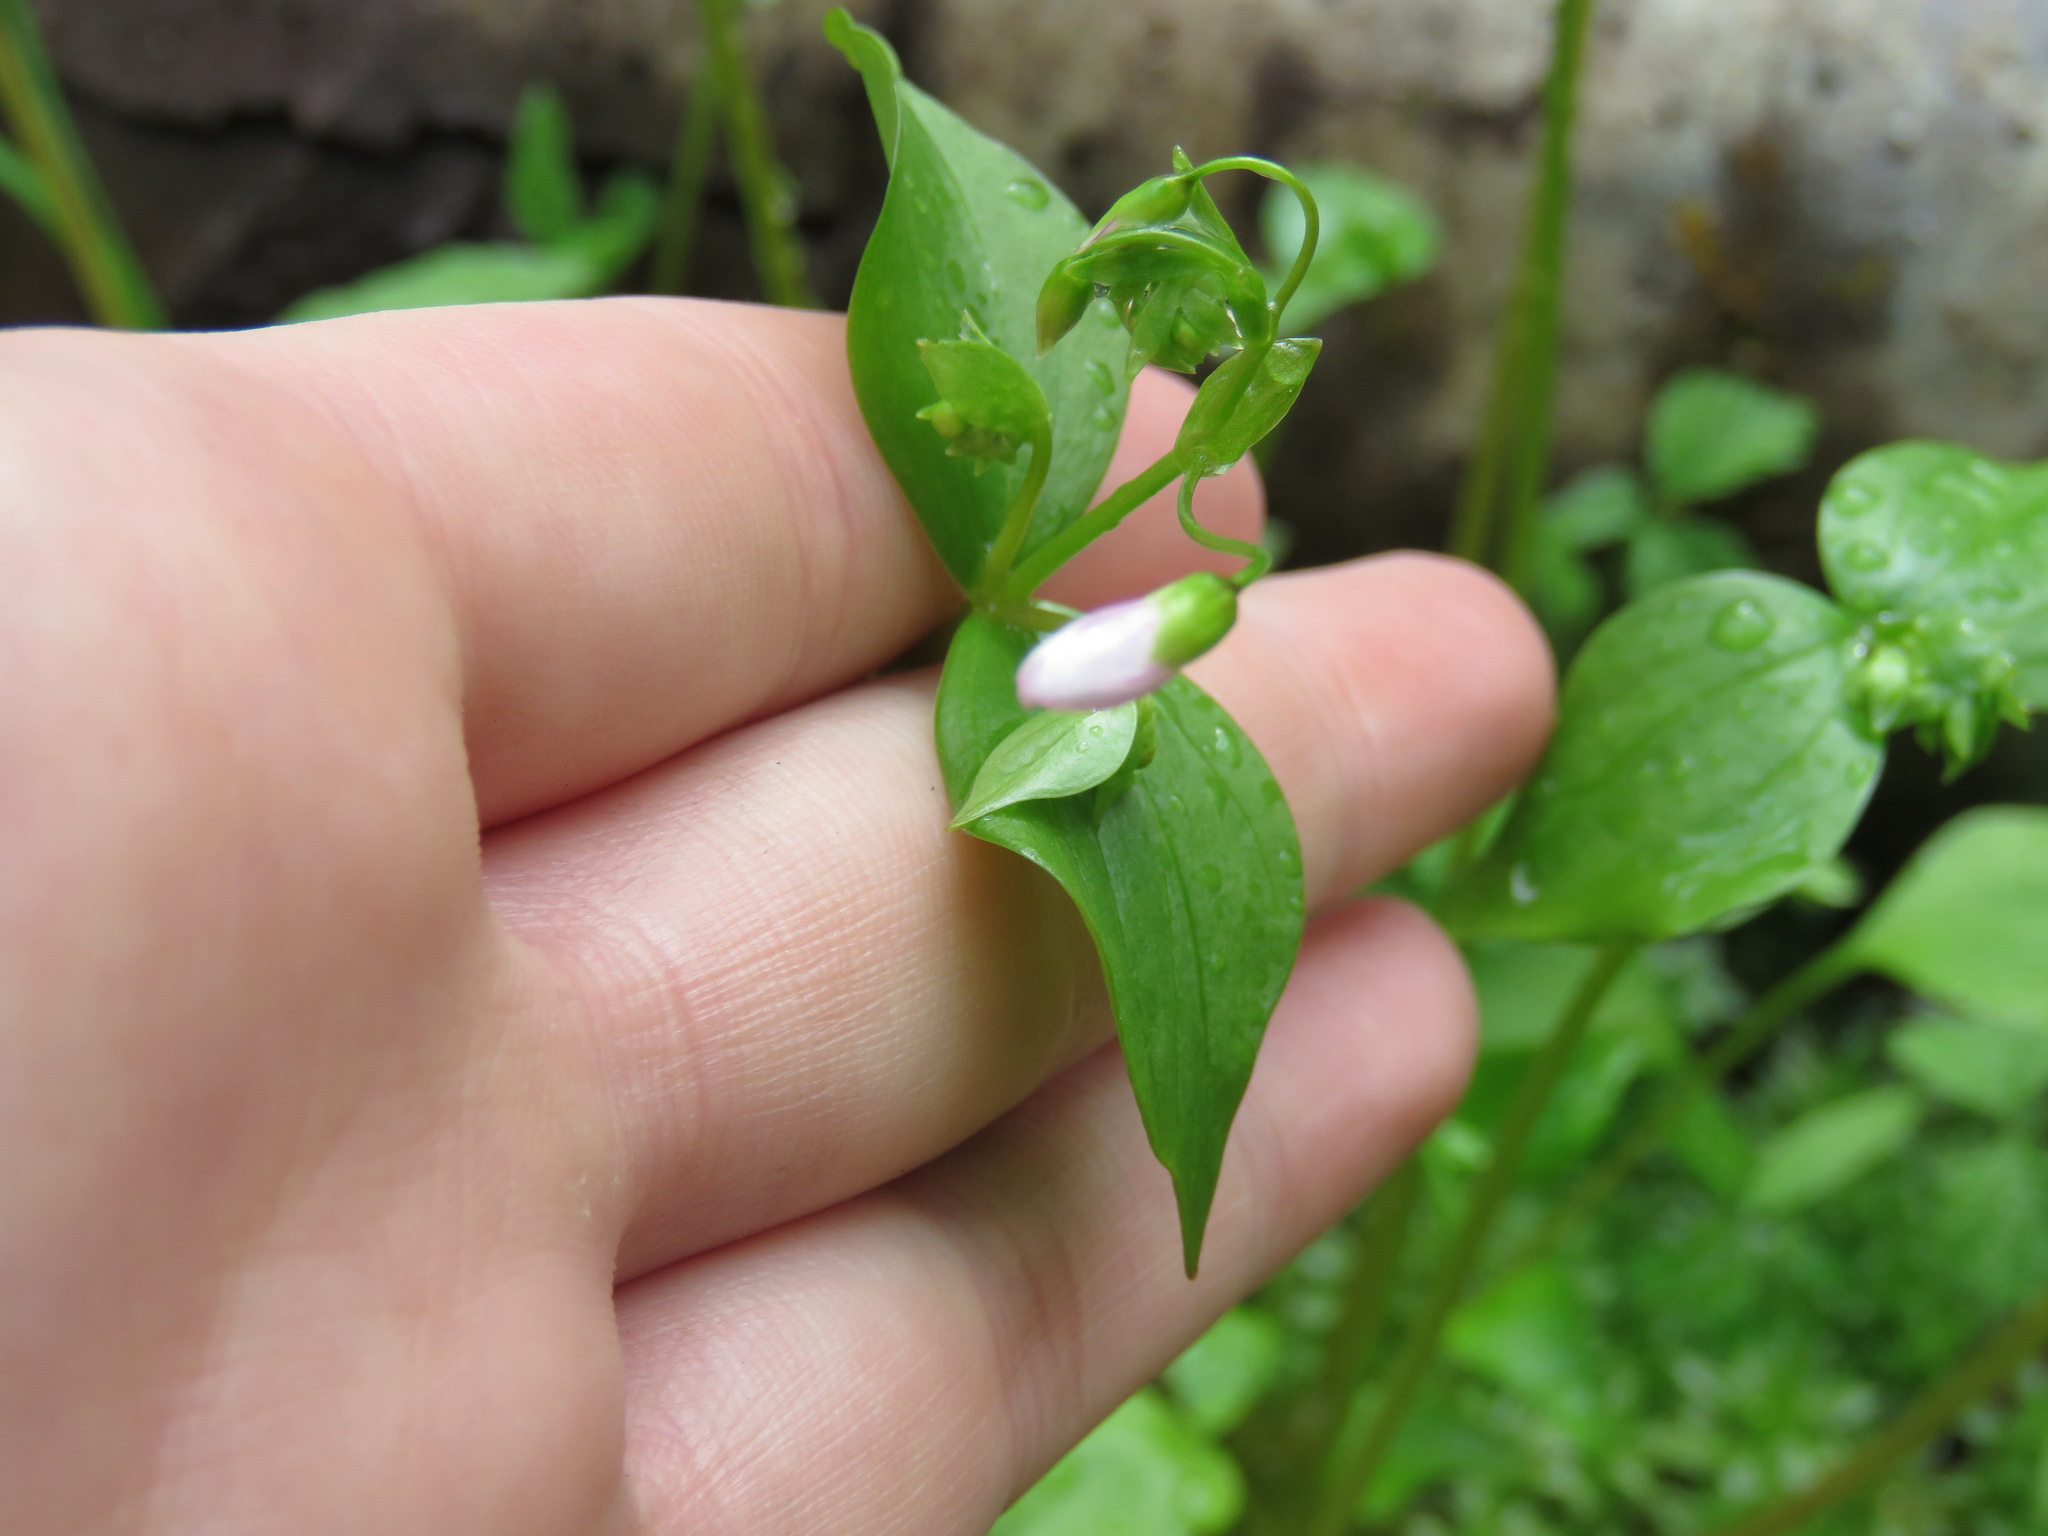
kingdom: Plantae
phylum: Tracheophyta
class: Magnoliopsida
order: Caryophyllales
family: Montiaceae
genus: Claytonia
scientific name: Claytonia sibirica
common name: Pink purslane
